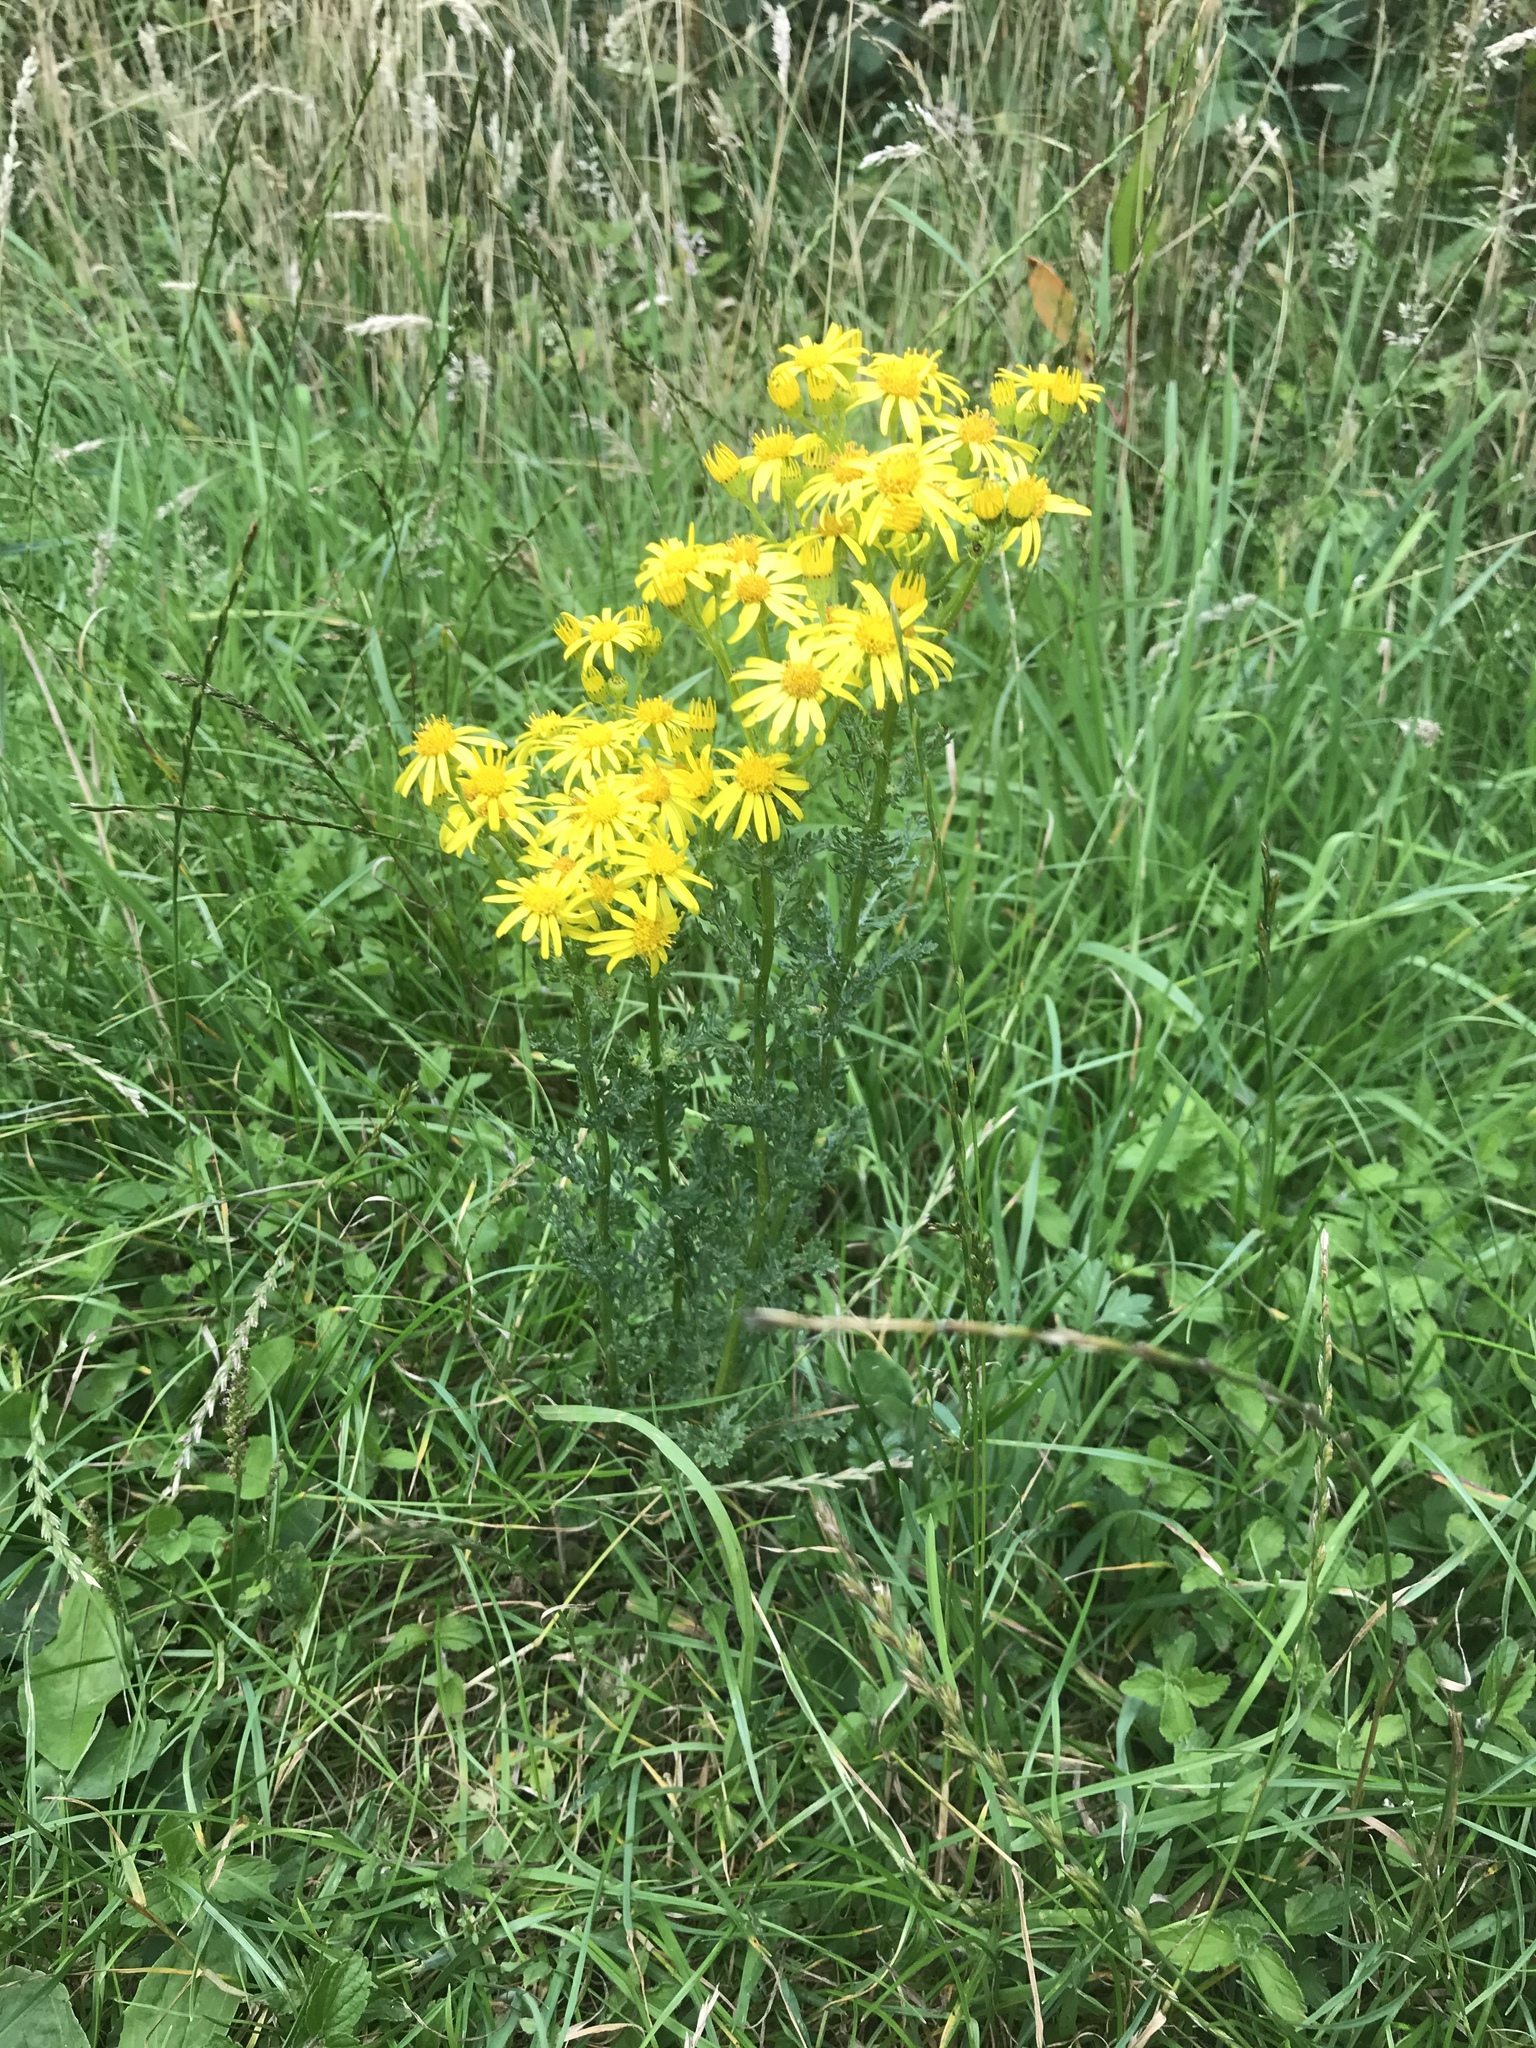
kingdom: Plantae
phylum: Tracheophyta
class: Magnoliopsida
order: Asterales
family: Asteraceae
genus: Jacobaea
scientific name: Jacobaea vulgaris
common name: Stinking willie
